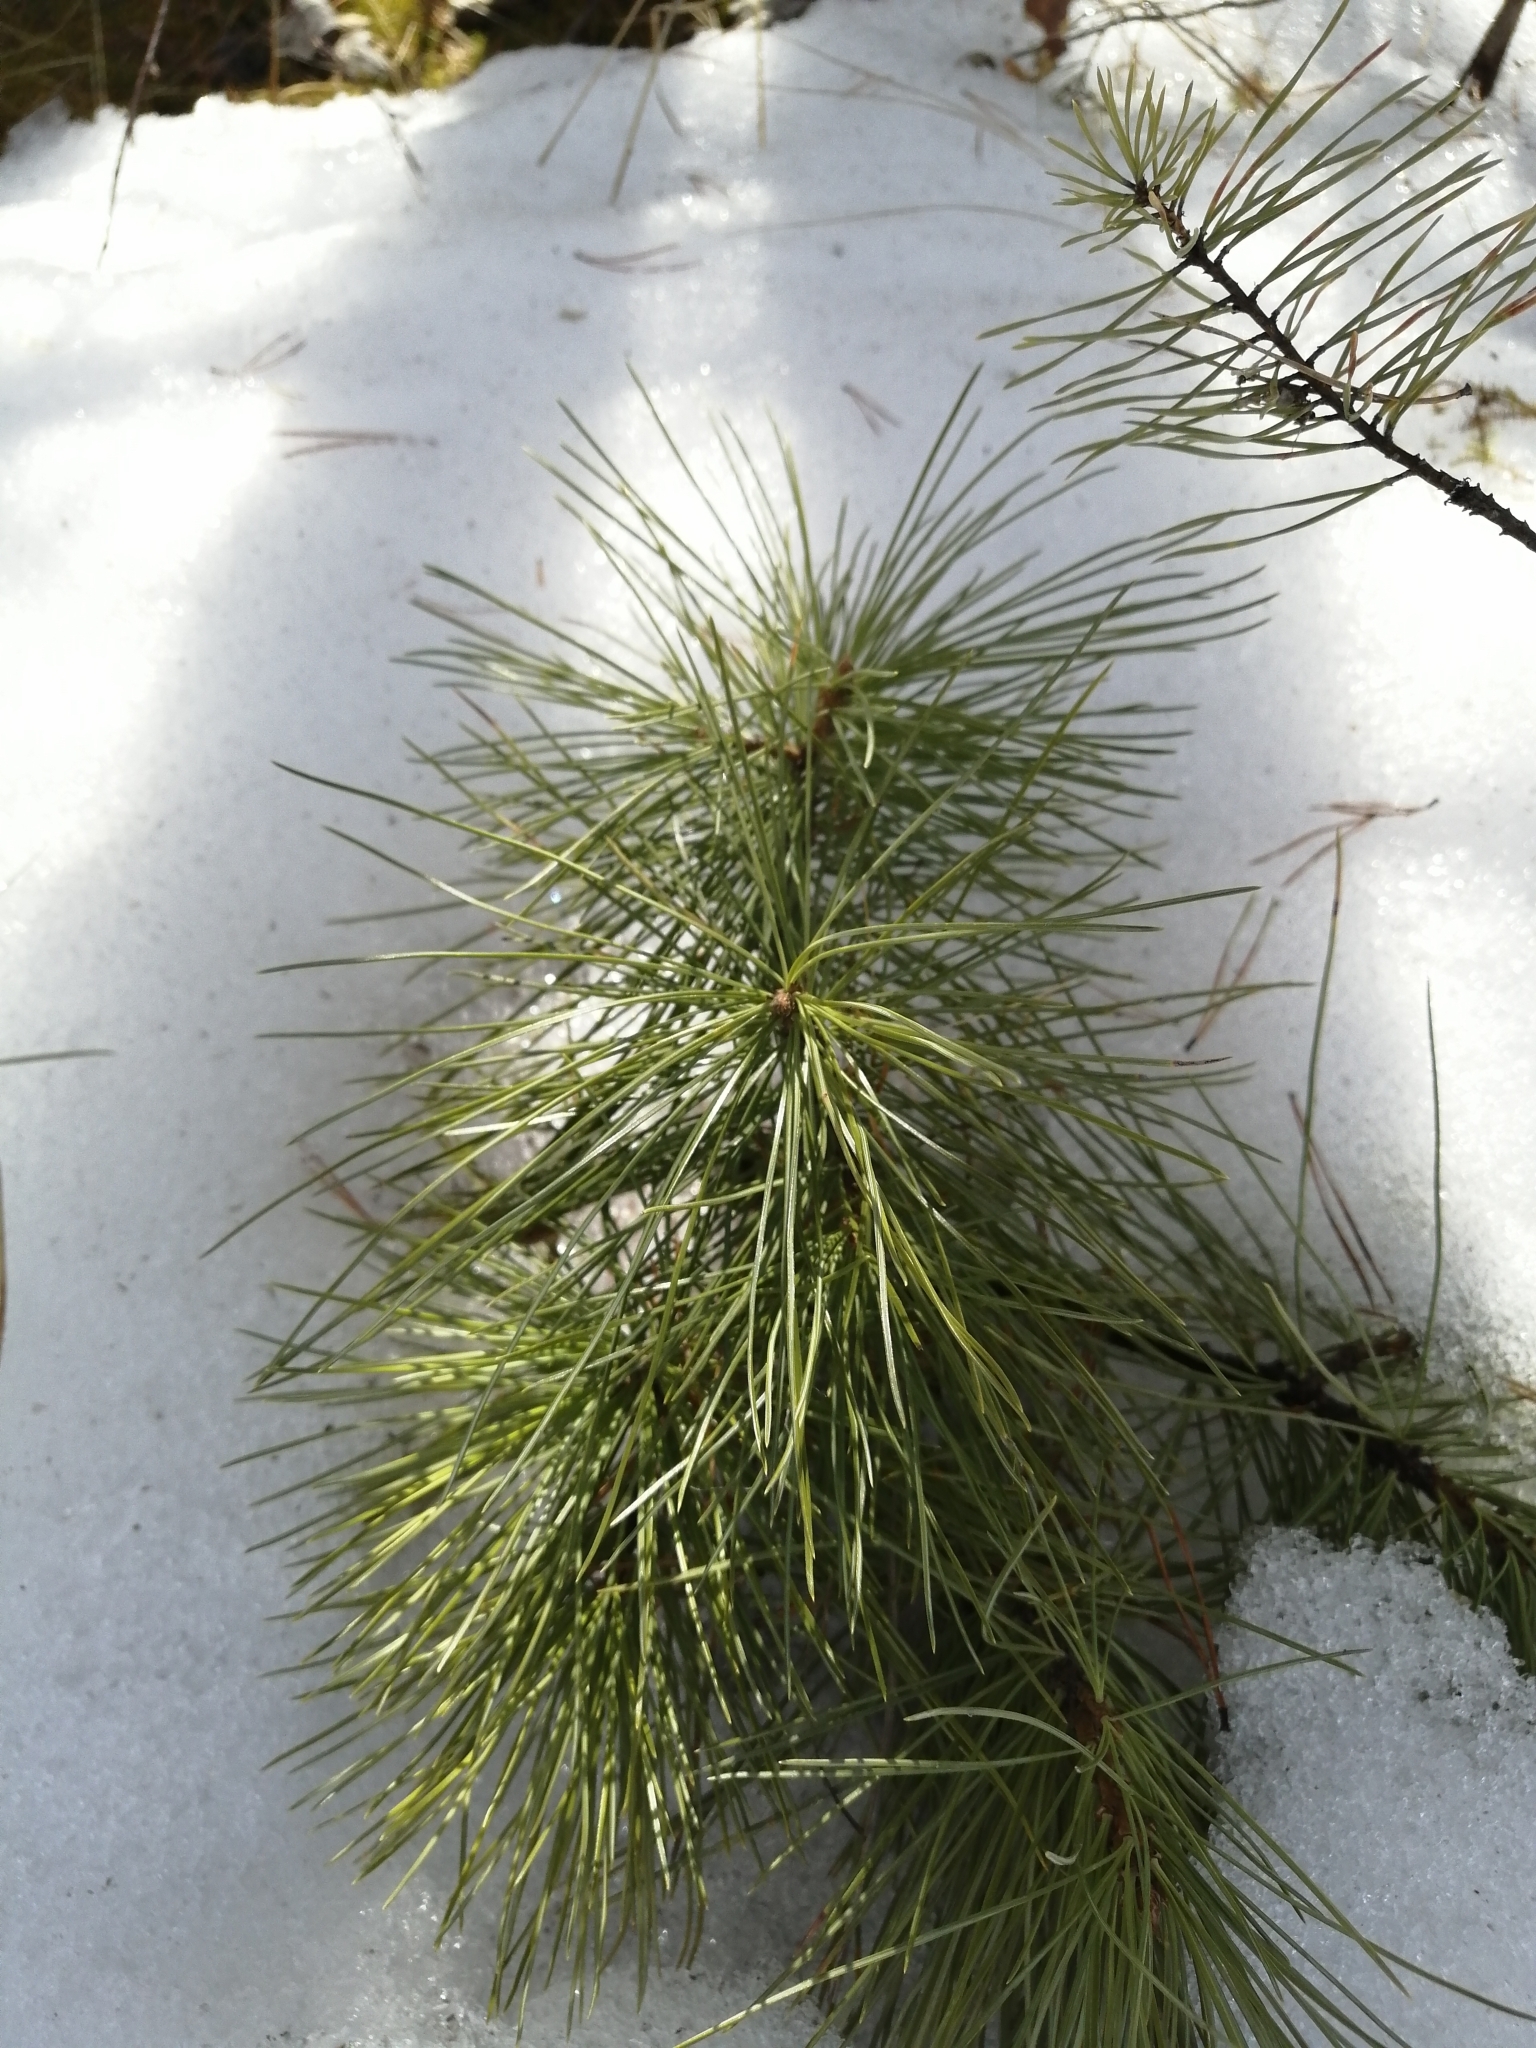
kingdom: Plantae
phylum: Tracheophyta
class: Pinopsida
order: Pinales
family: Pinaceae
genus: Pinus
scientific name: Pinus sibirica
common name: Siberian pine
